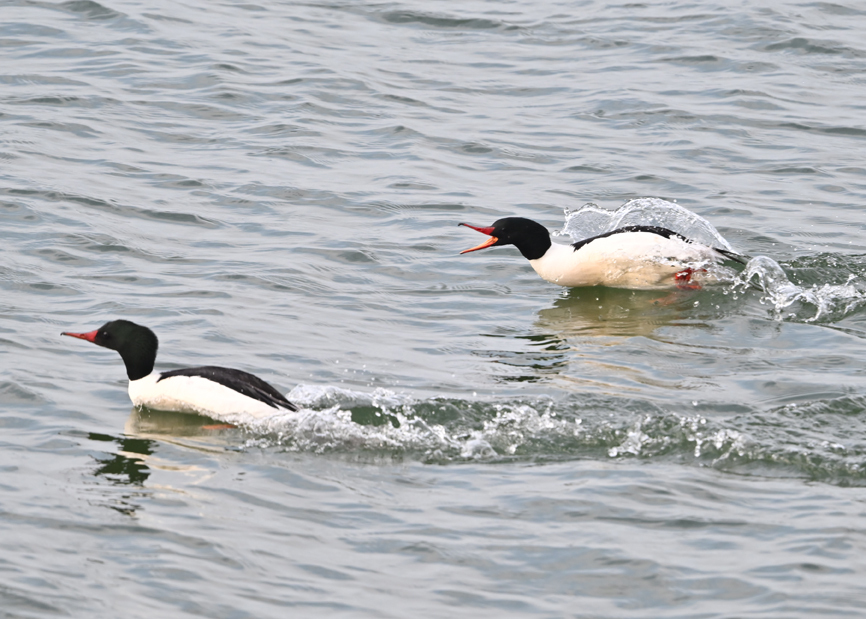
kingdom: Animalia
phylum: Chordata
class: Aves
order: Anseriformes
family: Anatidae
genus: Mergus
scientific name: Mergus merganser
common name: Common merganser
